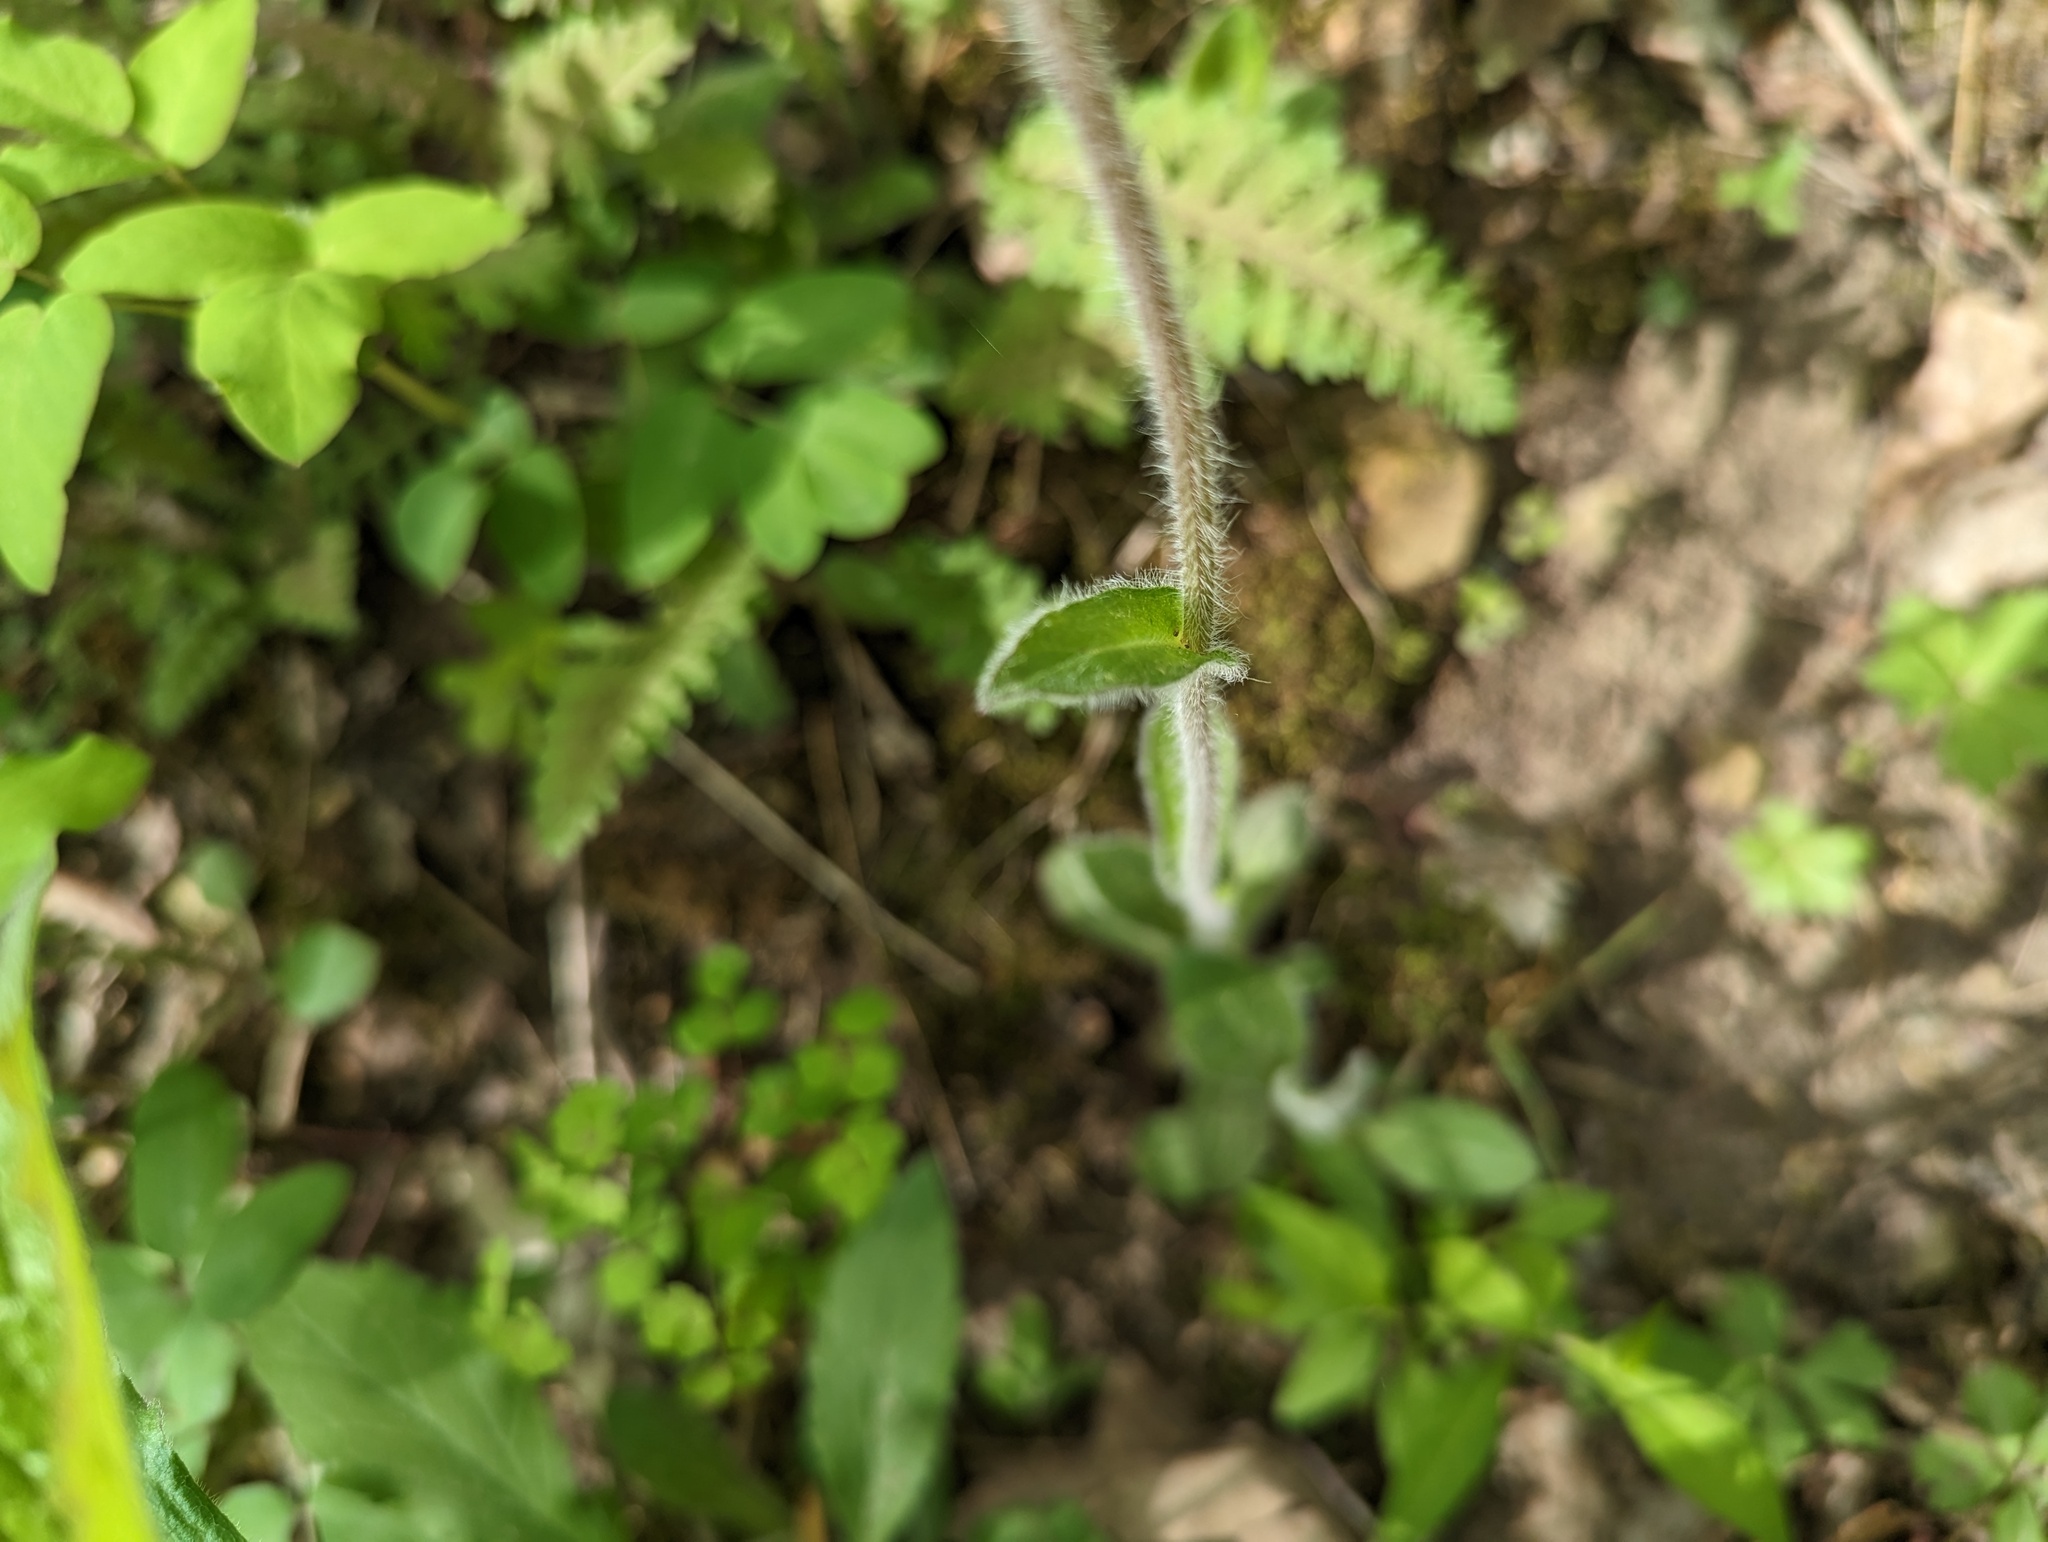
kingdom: Plantae
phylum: Tracheophyta
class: Magnoliopsida
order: Asterales
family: Asteraceae
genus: Erigeron
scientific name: Erigeron pulchellus
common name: Hairy fleabane
